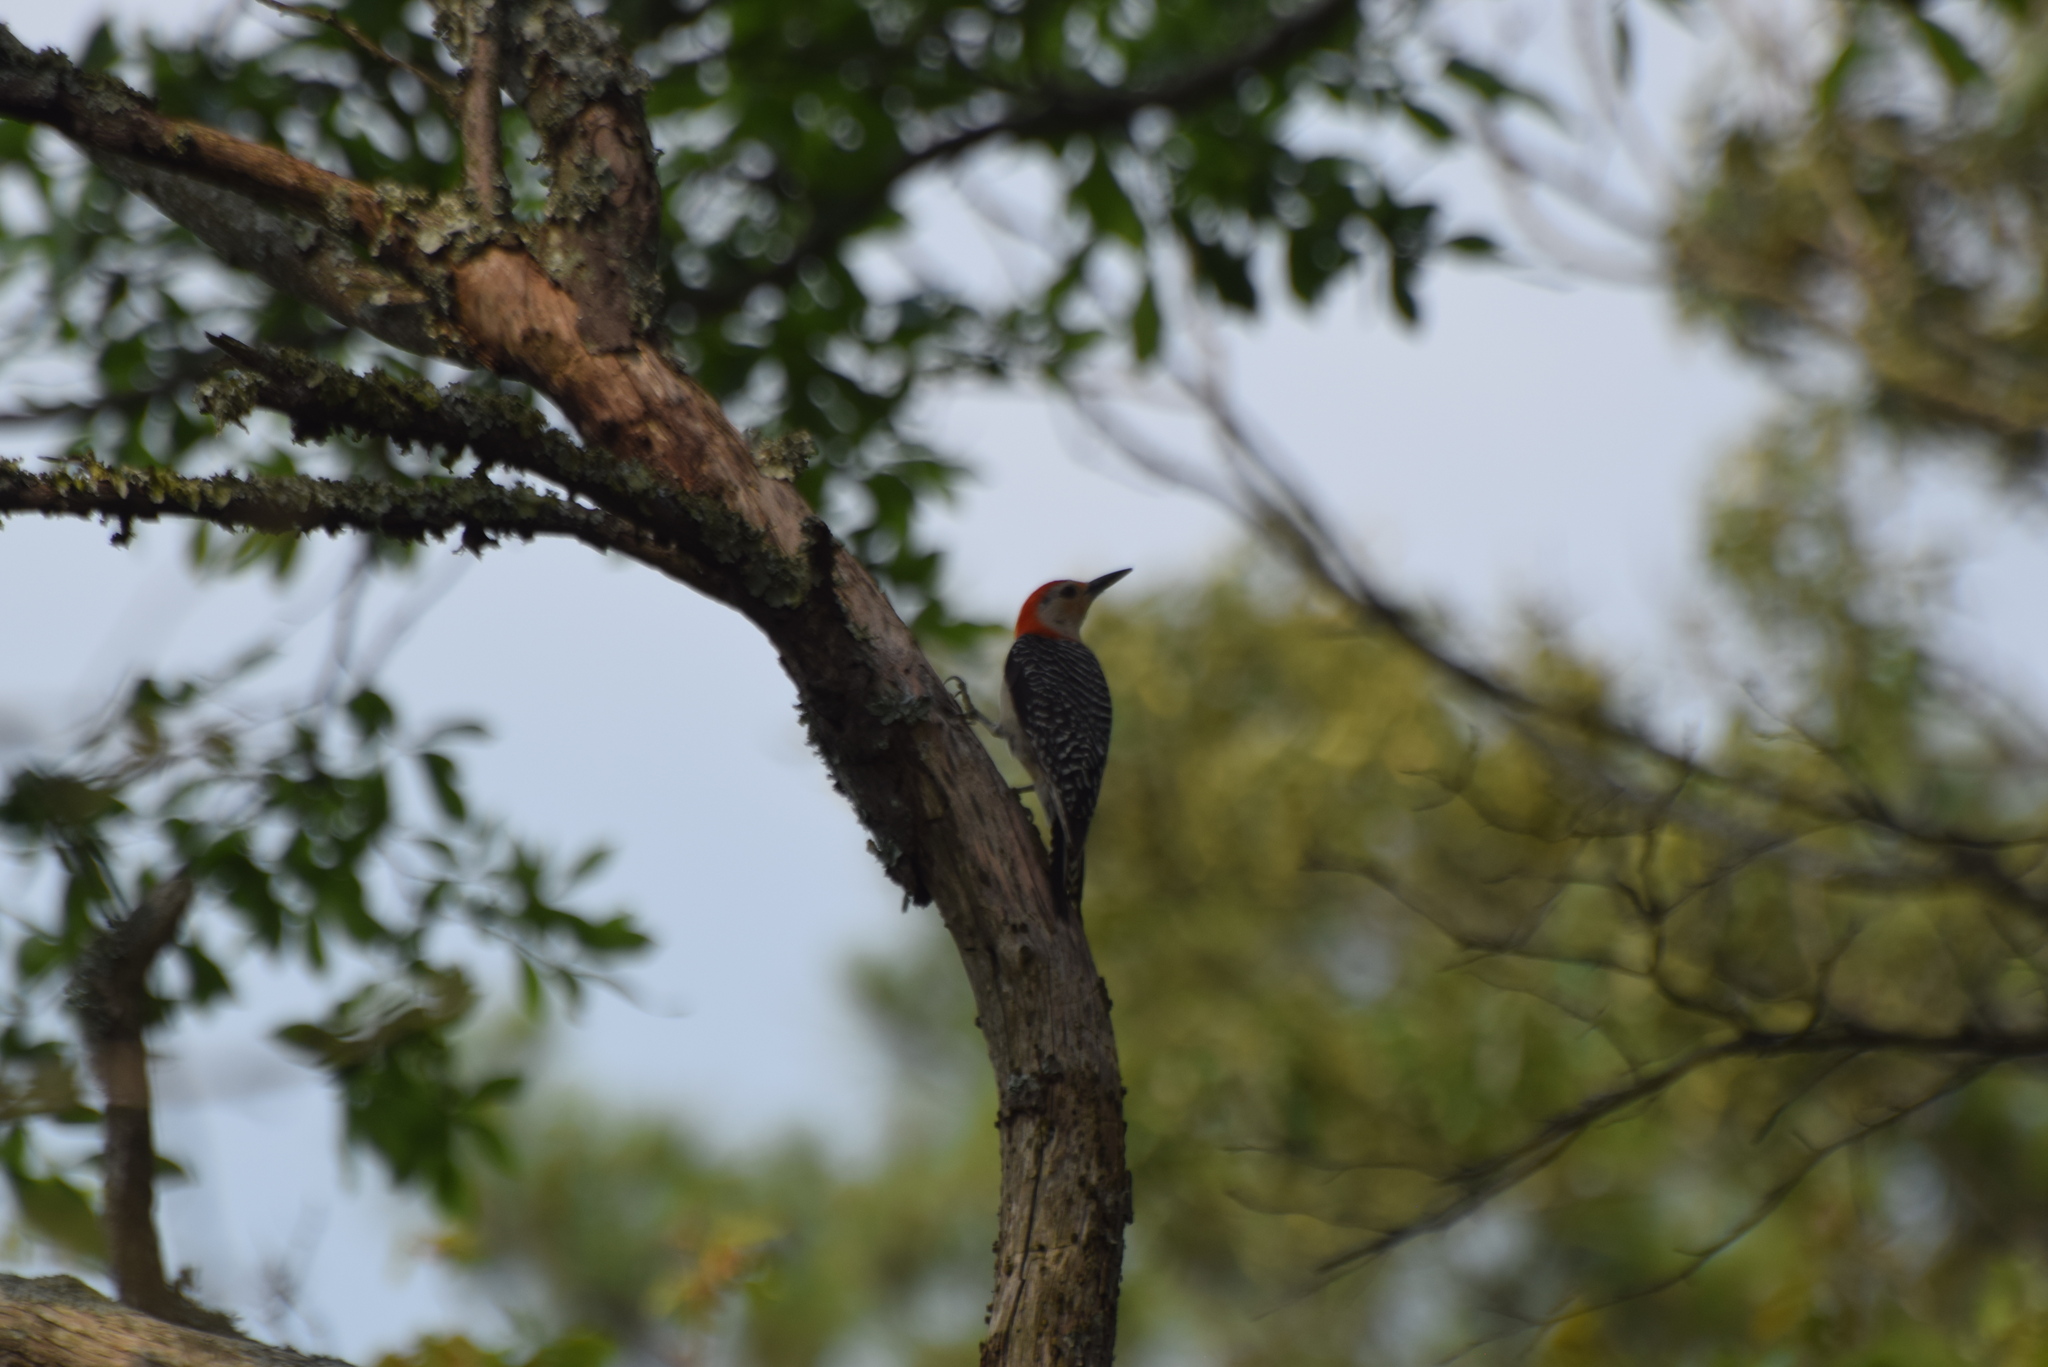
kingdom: Animalia
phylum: Chordata
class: Aves
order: Piciformes
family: Picidae
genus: Melanerpes
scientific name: Melanerpes carolinus
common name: Red-bellied woodpecker
